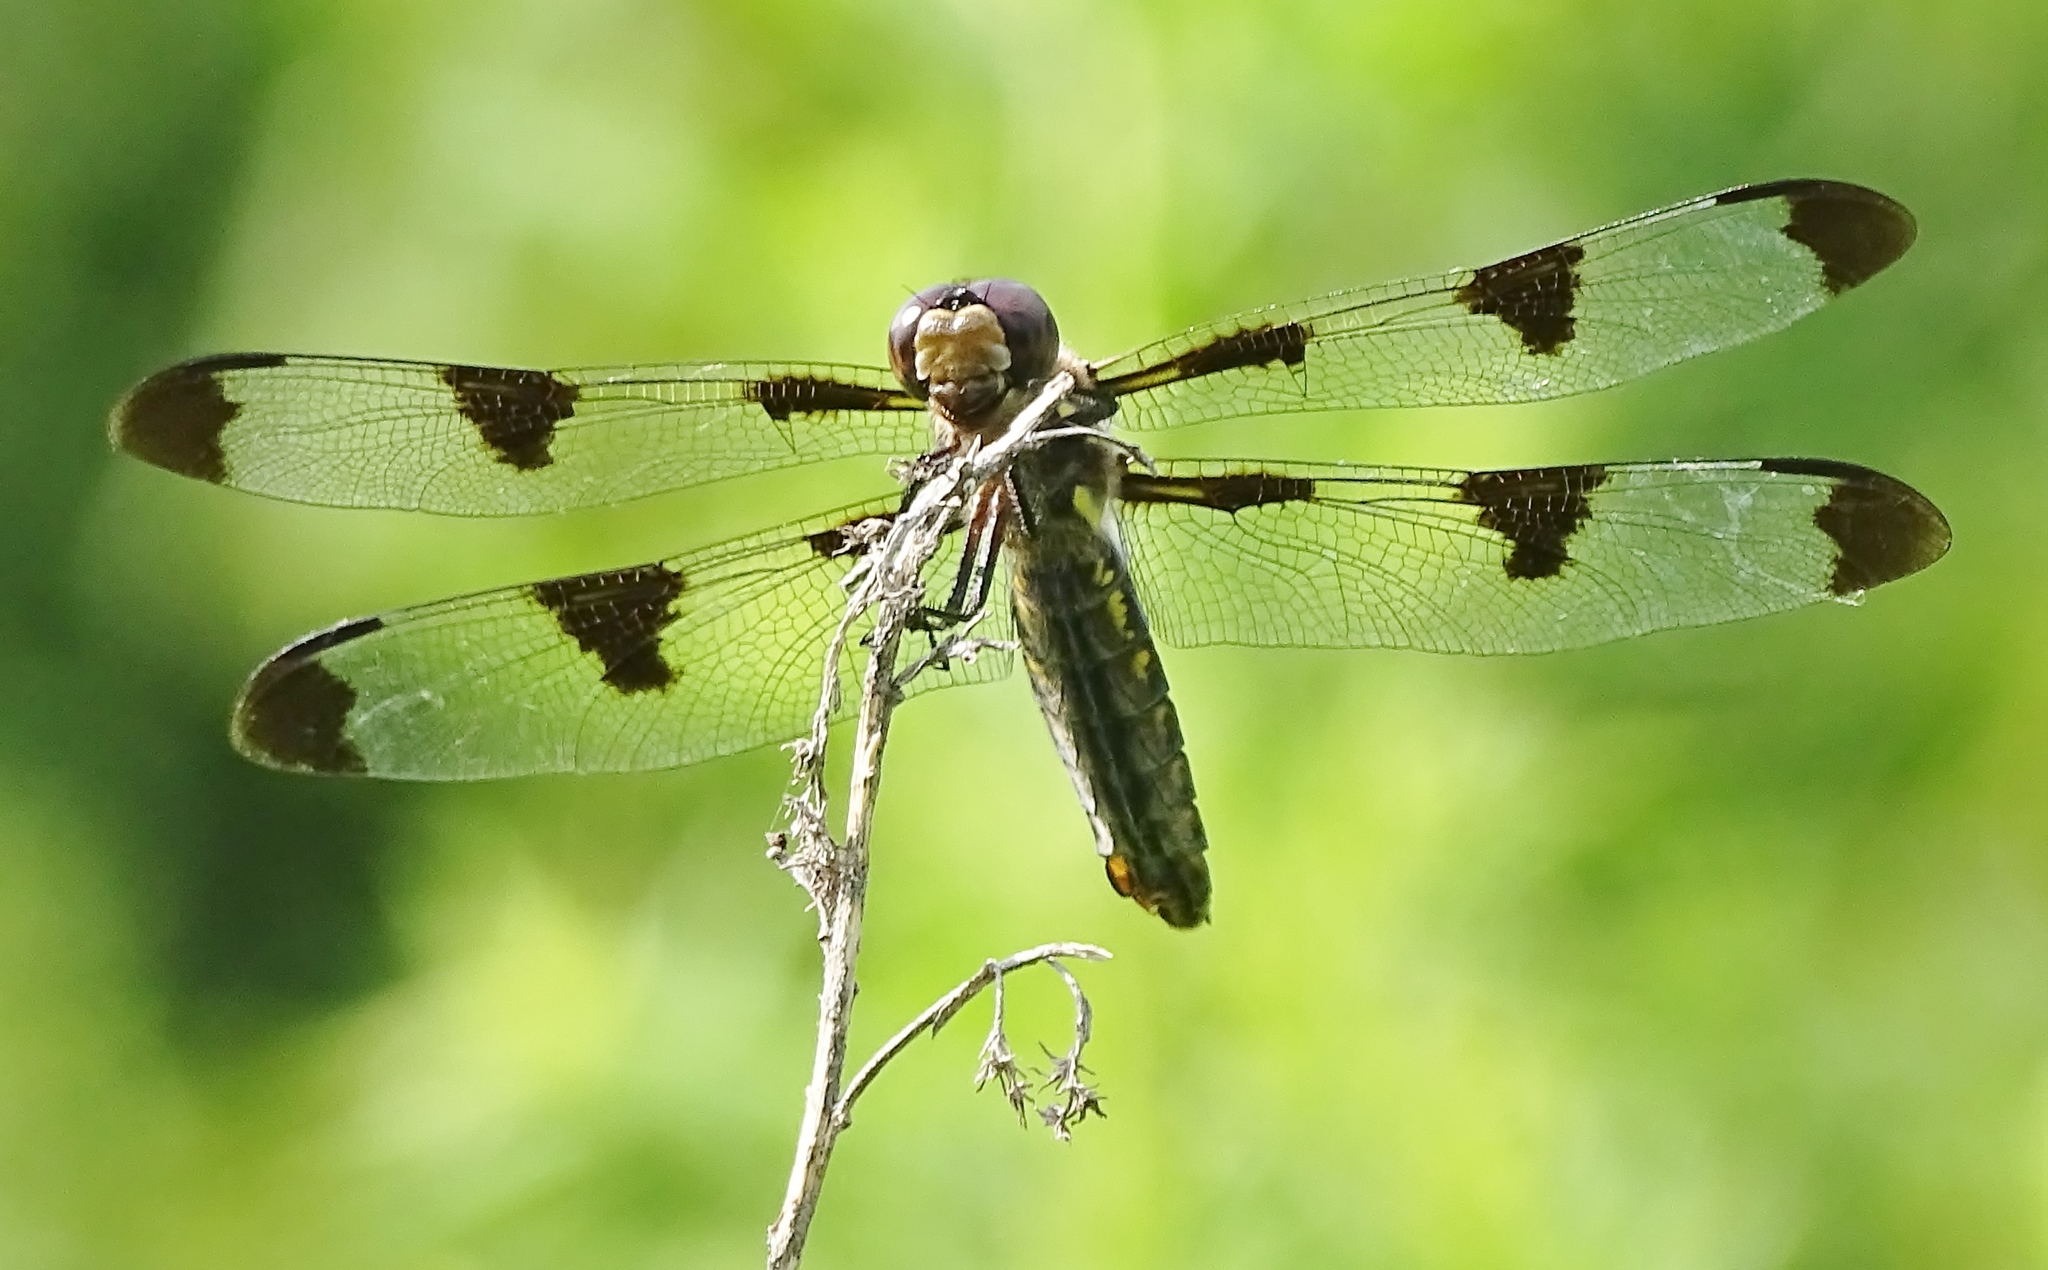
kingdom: Animalia
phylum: Arthropoda
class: Insecta
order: Odonata
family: Libellulidae
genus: Plathemis
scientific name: Plathemis lydia
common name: Common whitetail
